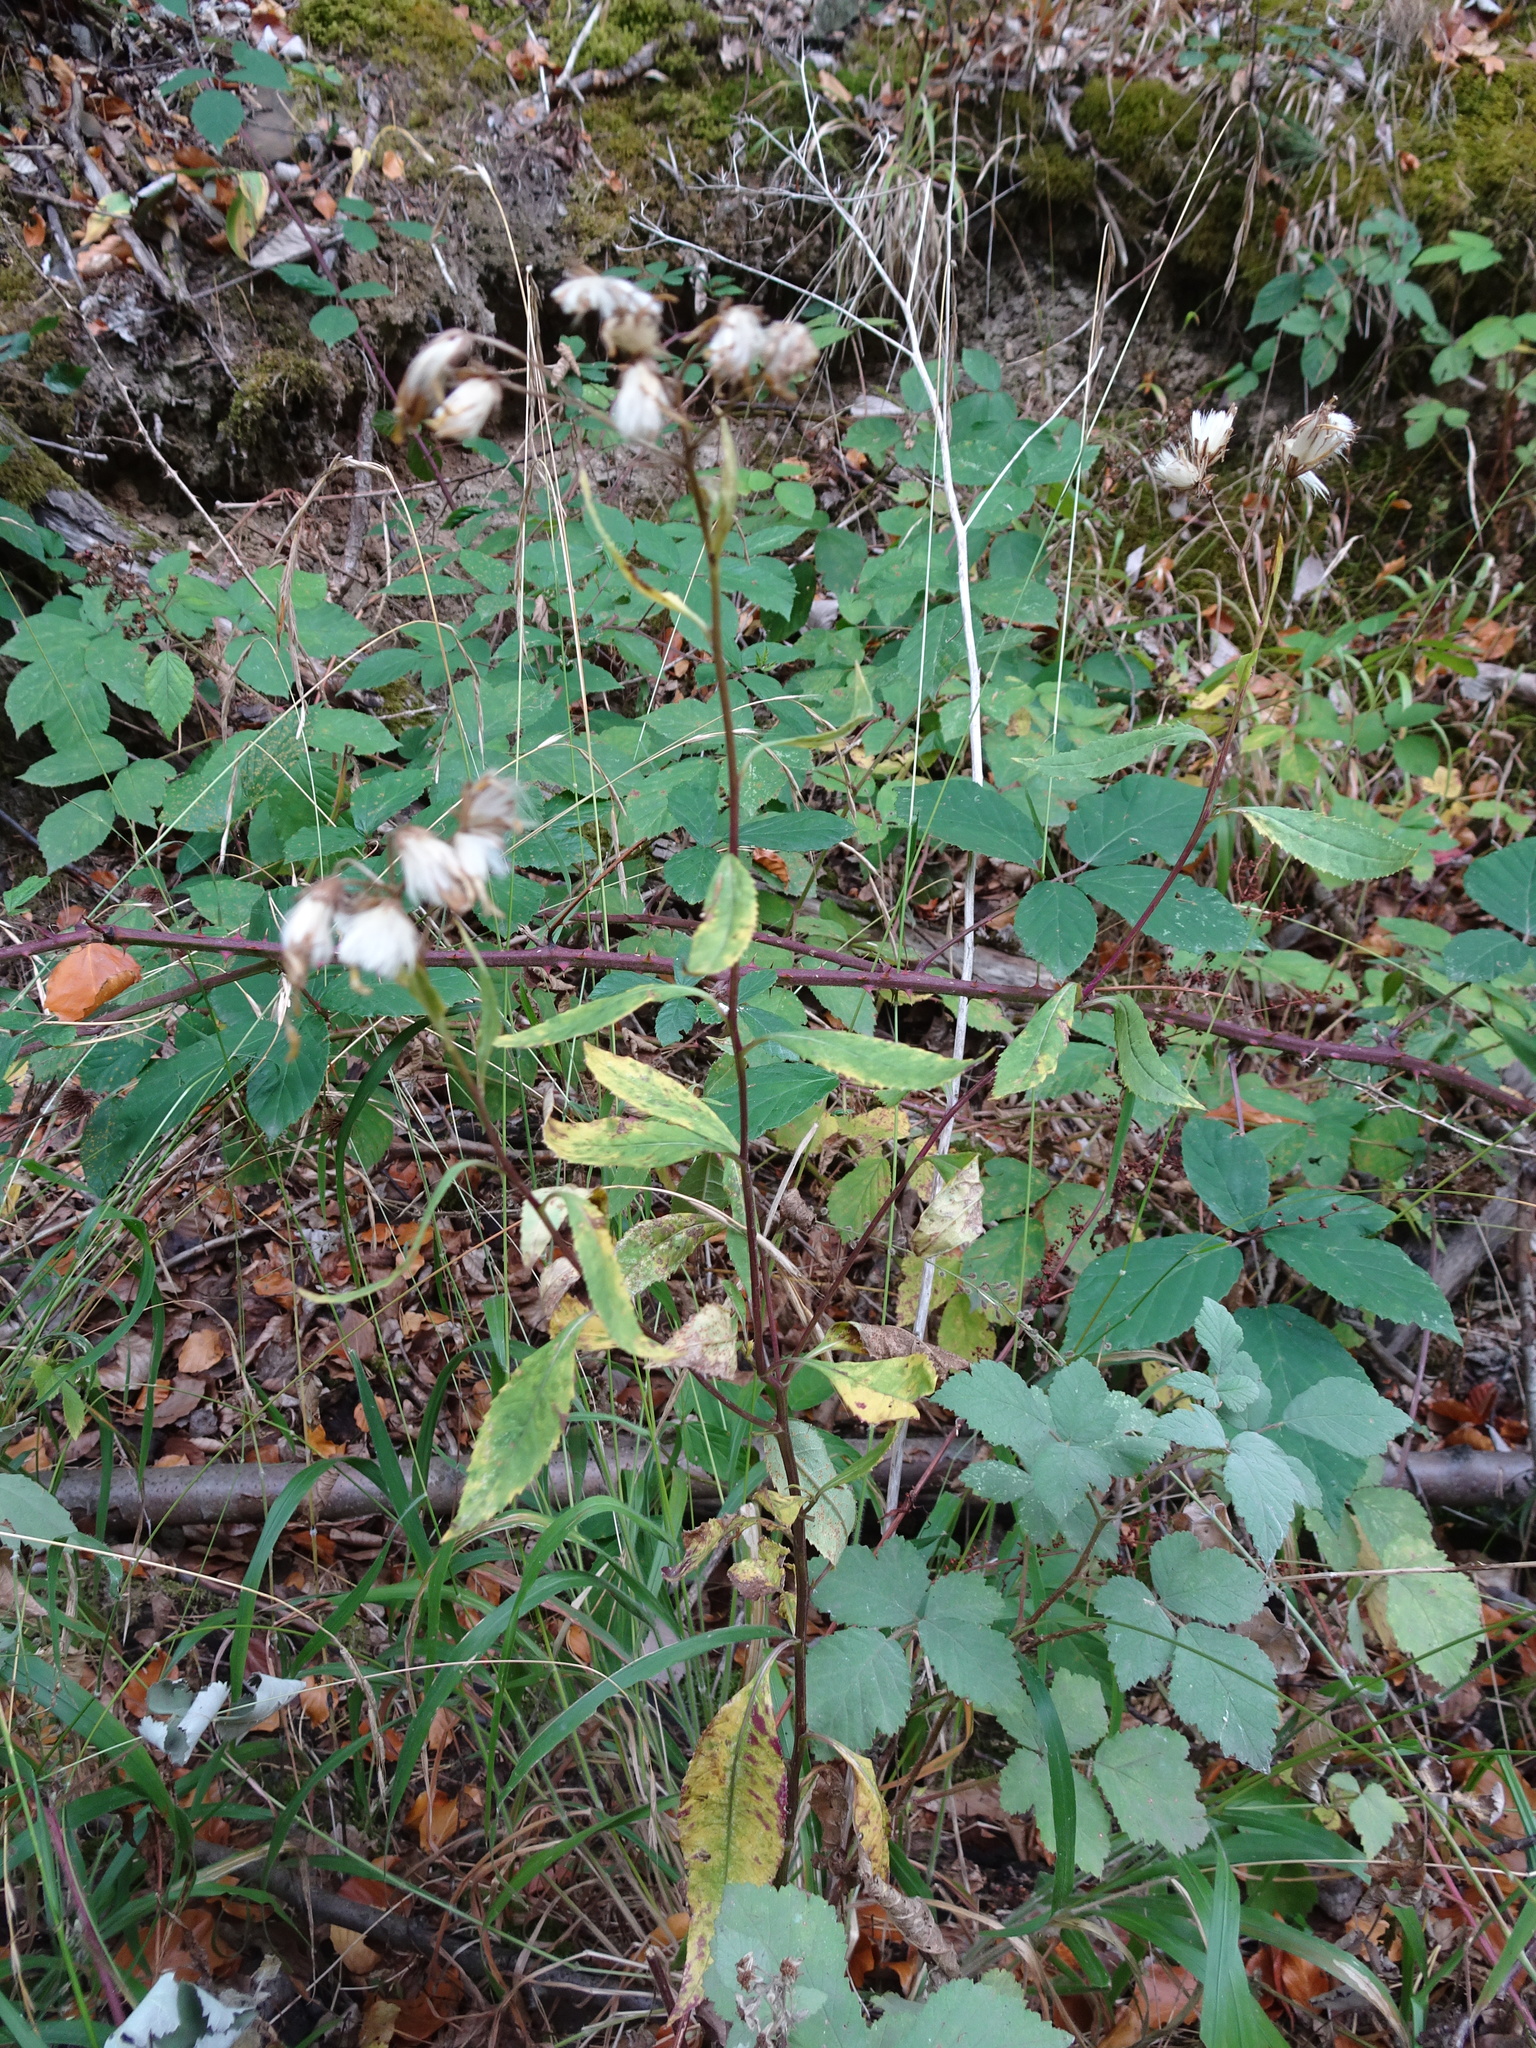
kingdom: Plantae
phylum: Tracheophyta
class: Magnoliopsida
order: Asterales
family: Asteraceae
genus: Senecio
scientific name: Senecio ovatus
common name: Wood ragwort
